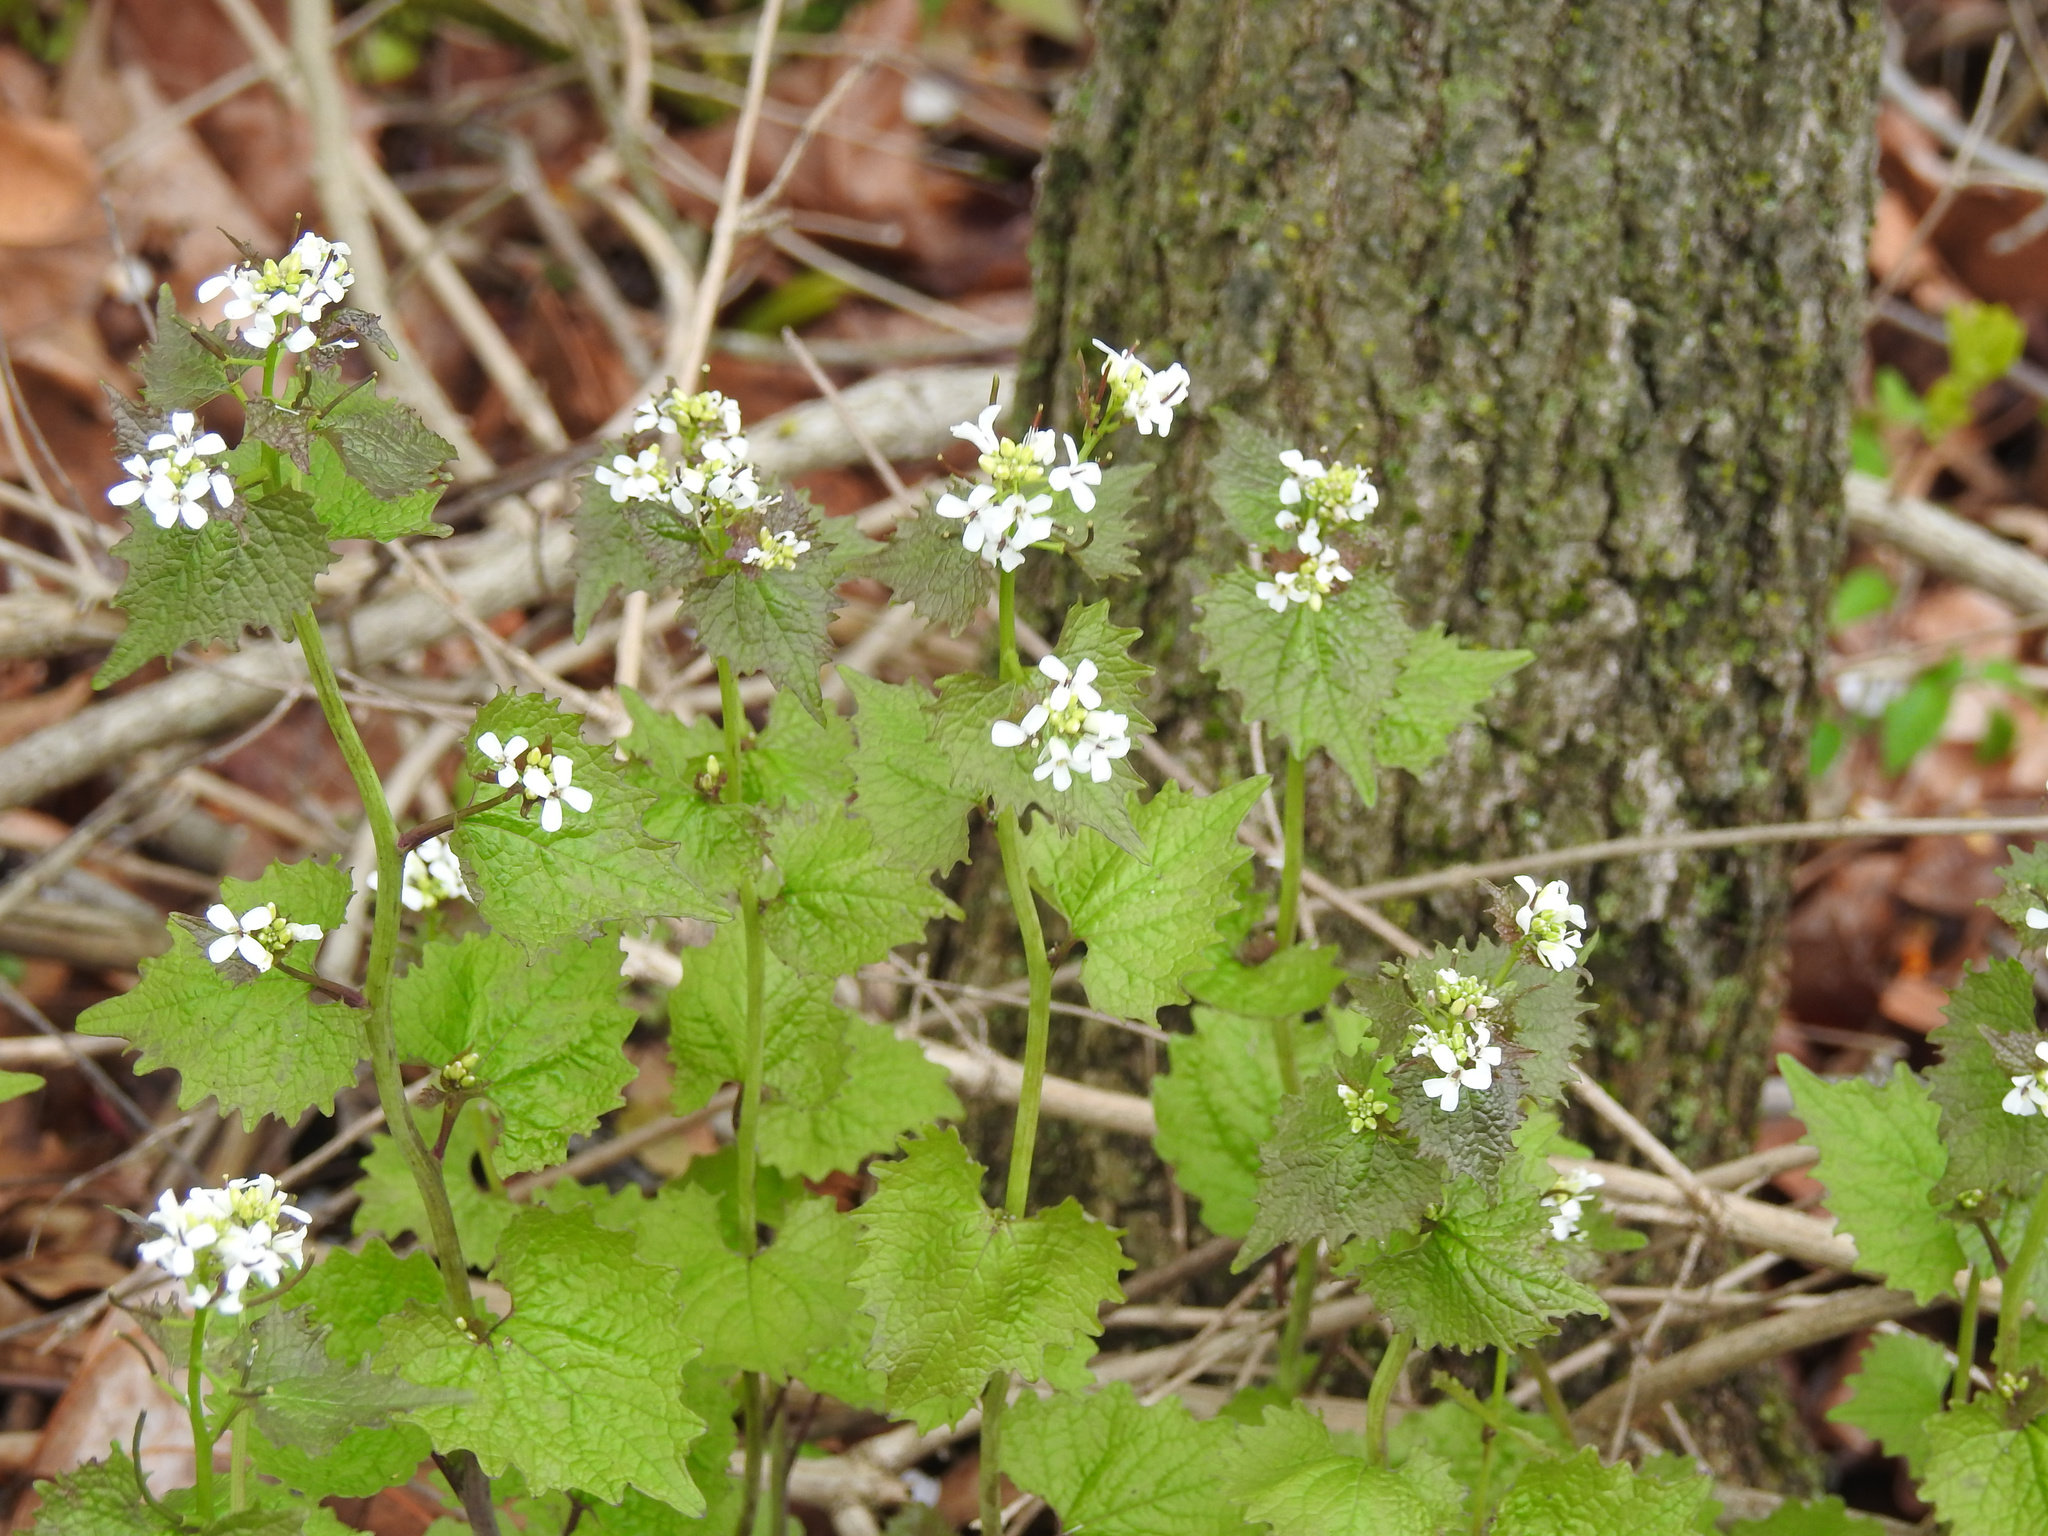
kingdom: Plantae
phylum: Tracheophyta
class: Magnoliopsida
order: Brassicales
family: Brassicaceae
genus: Alliaria
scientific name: Alliaria petiolata
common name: Garlic mustard
